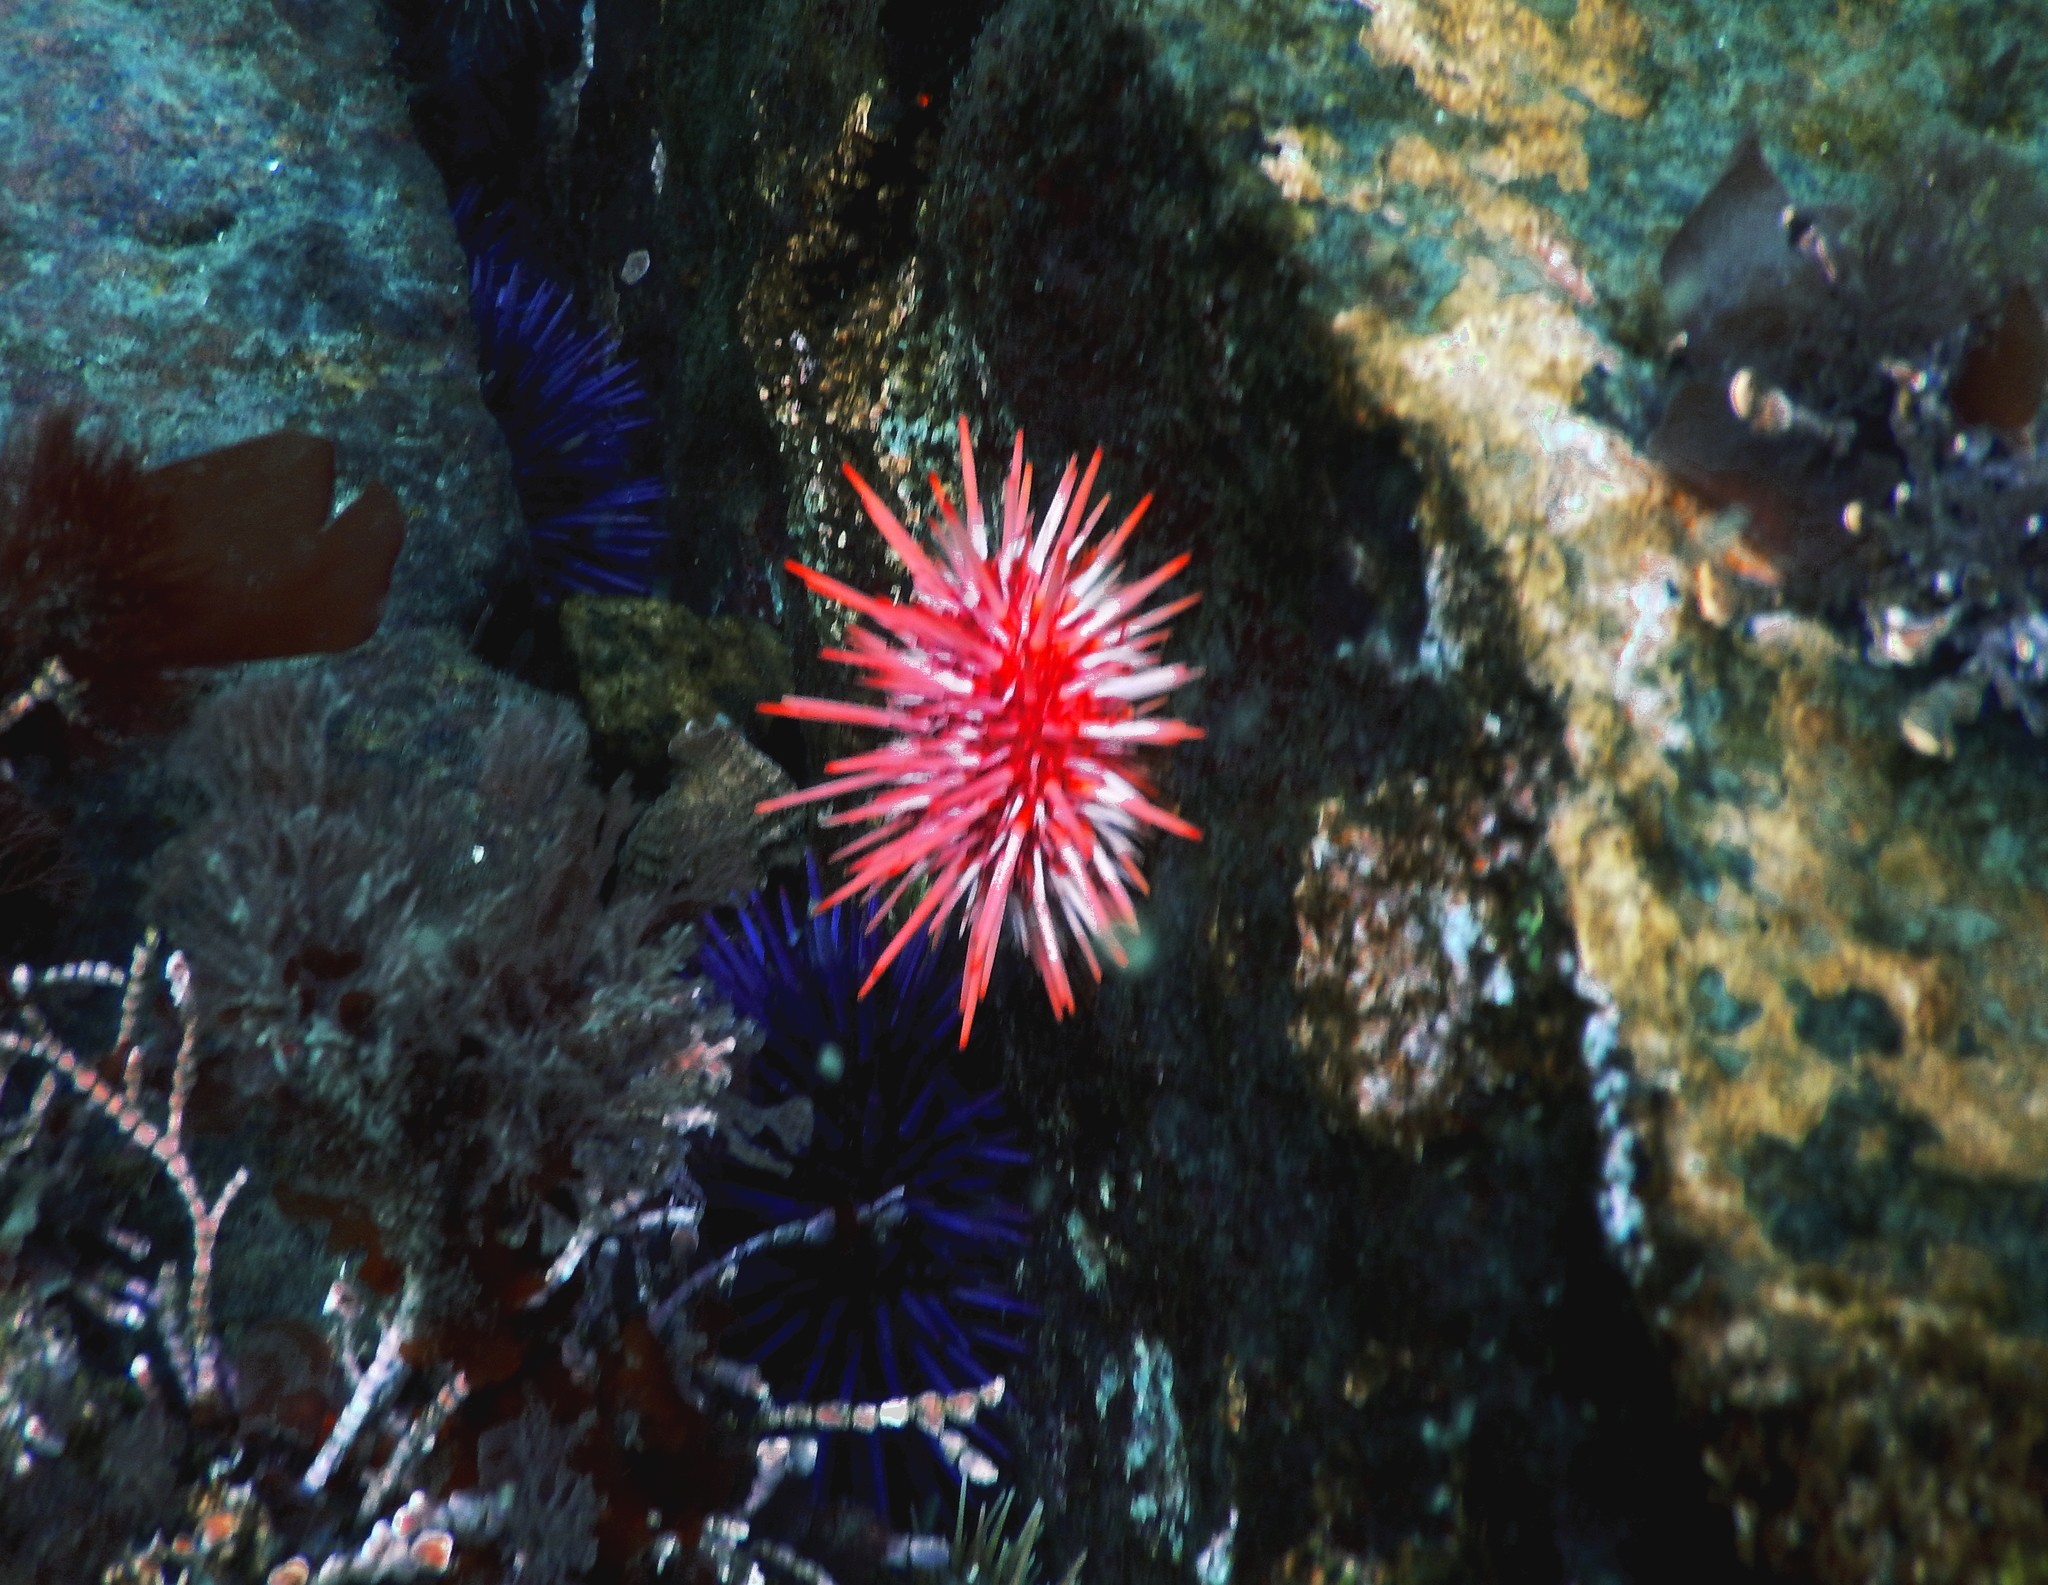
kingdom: Animalia
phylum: Echinodermata
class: Echinoidea
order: Camarodonta
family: Strongylocentrotidae
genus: Mesocentrotus
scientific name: Mesocentrotus franciscanus
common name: Red sea urchin
